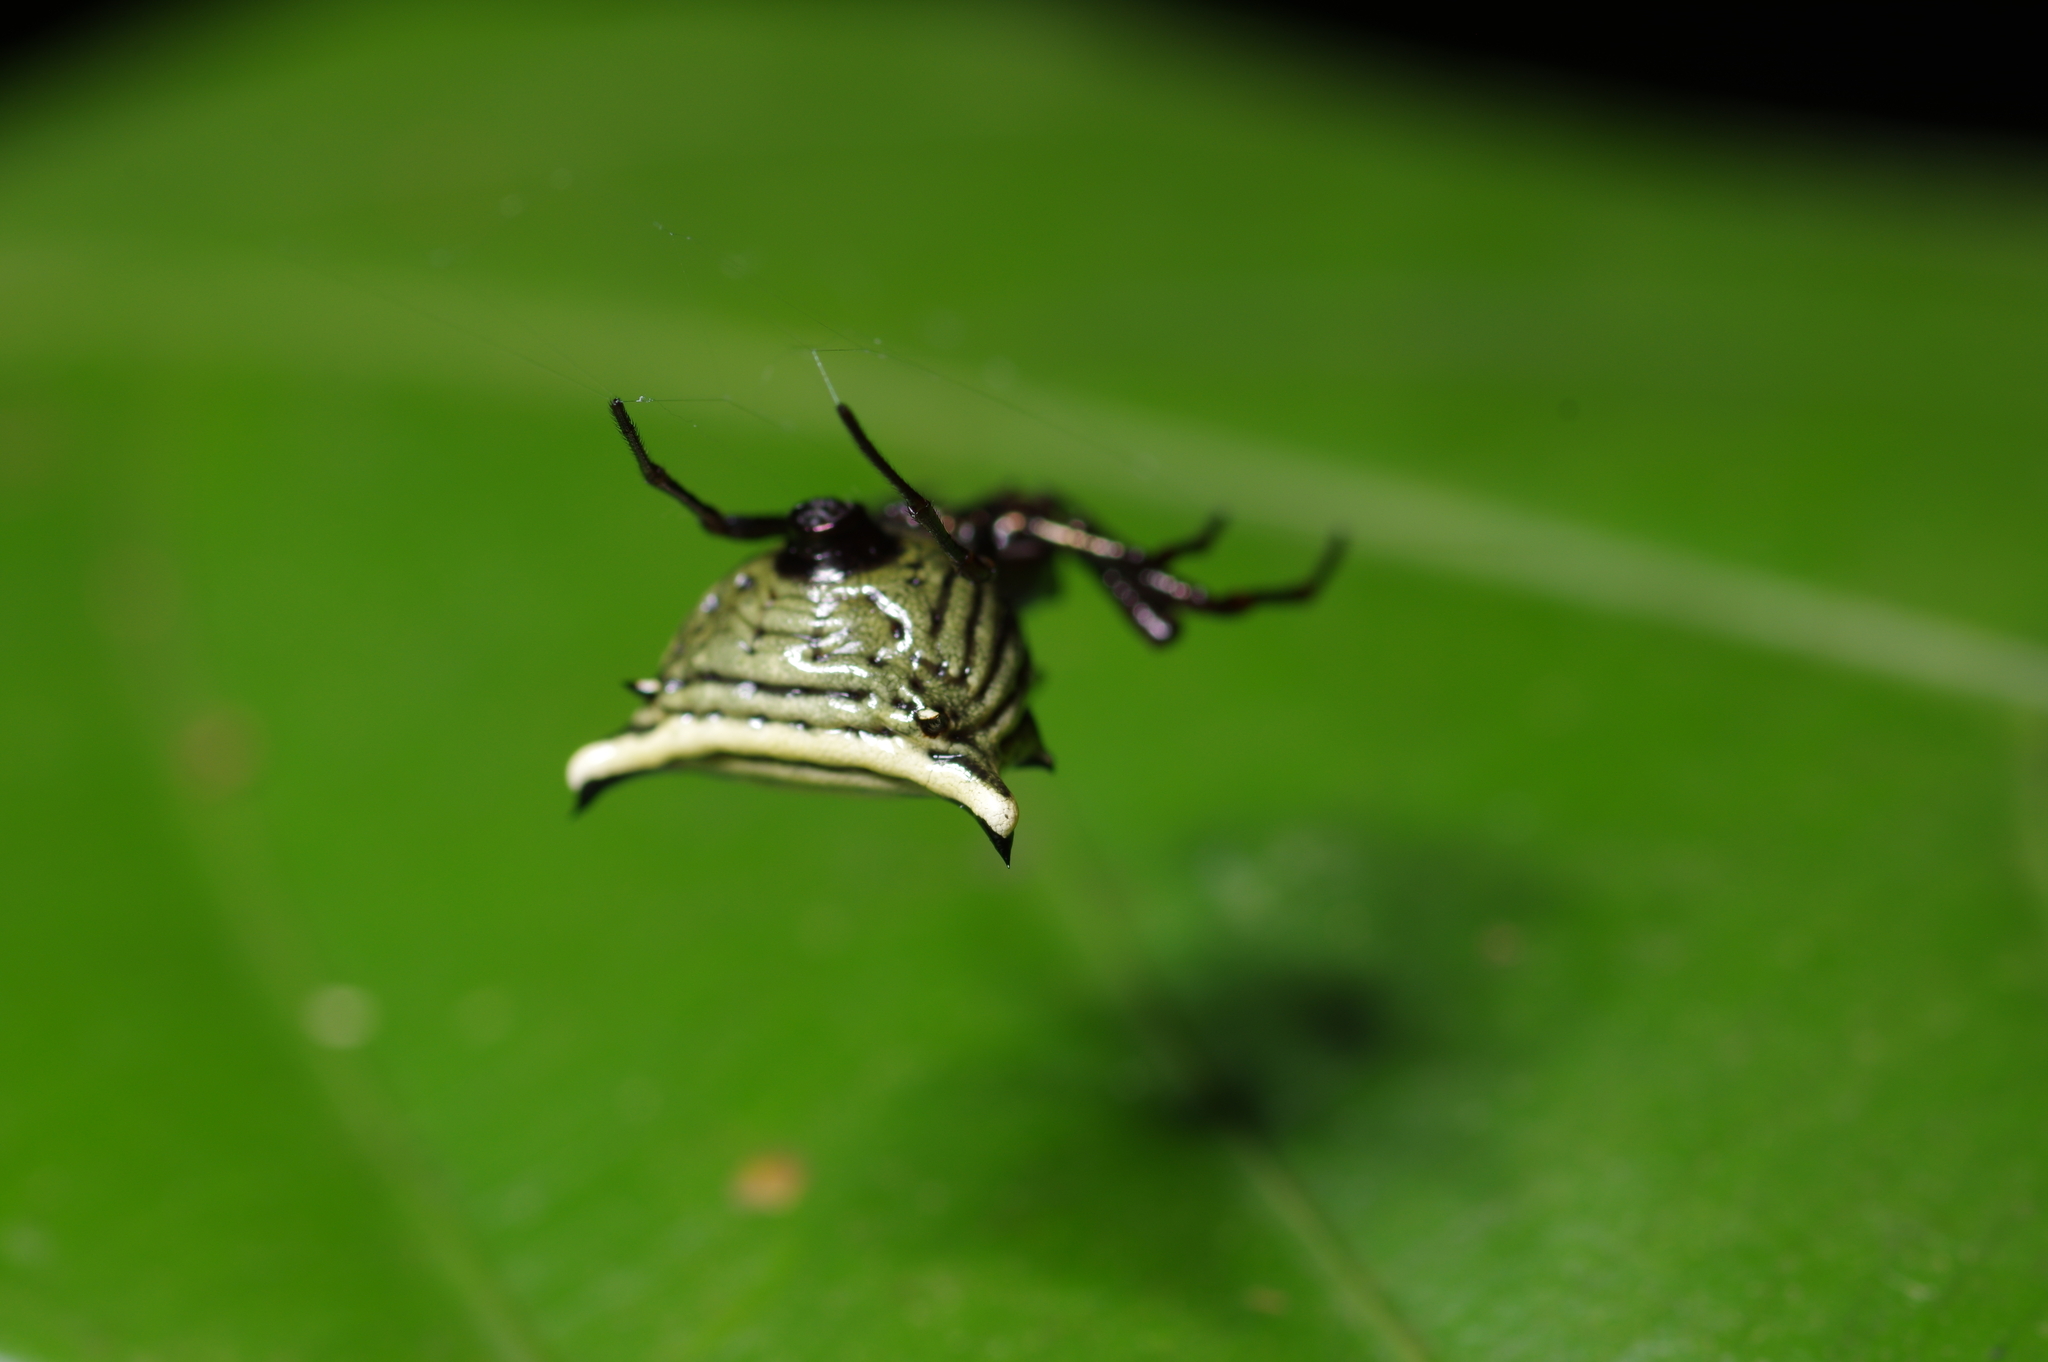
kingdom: Animalia
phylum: Arthropoda
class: Arachnida
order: Araneae
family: Araneidae
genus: Micrathena
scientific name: Micrathena hamifera
